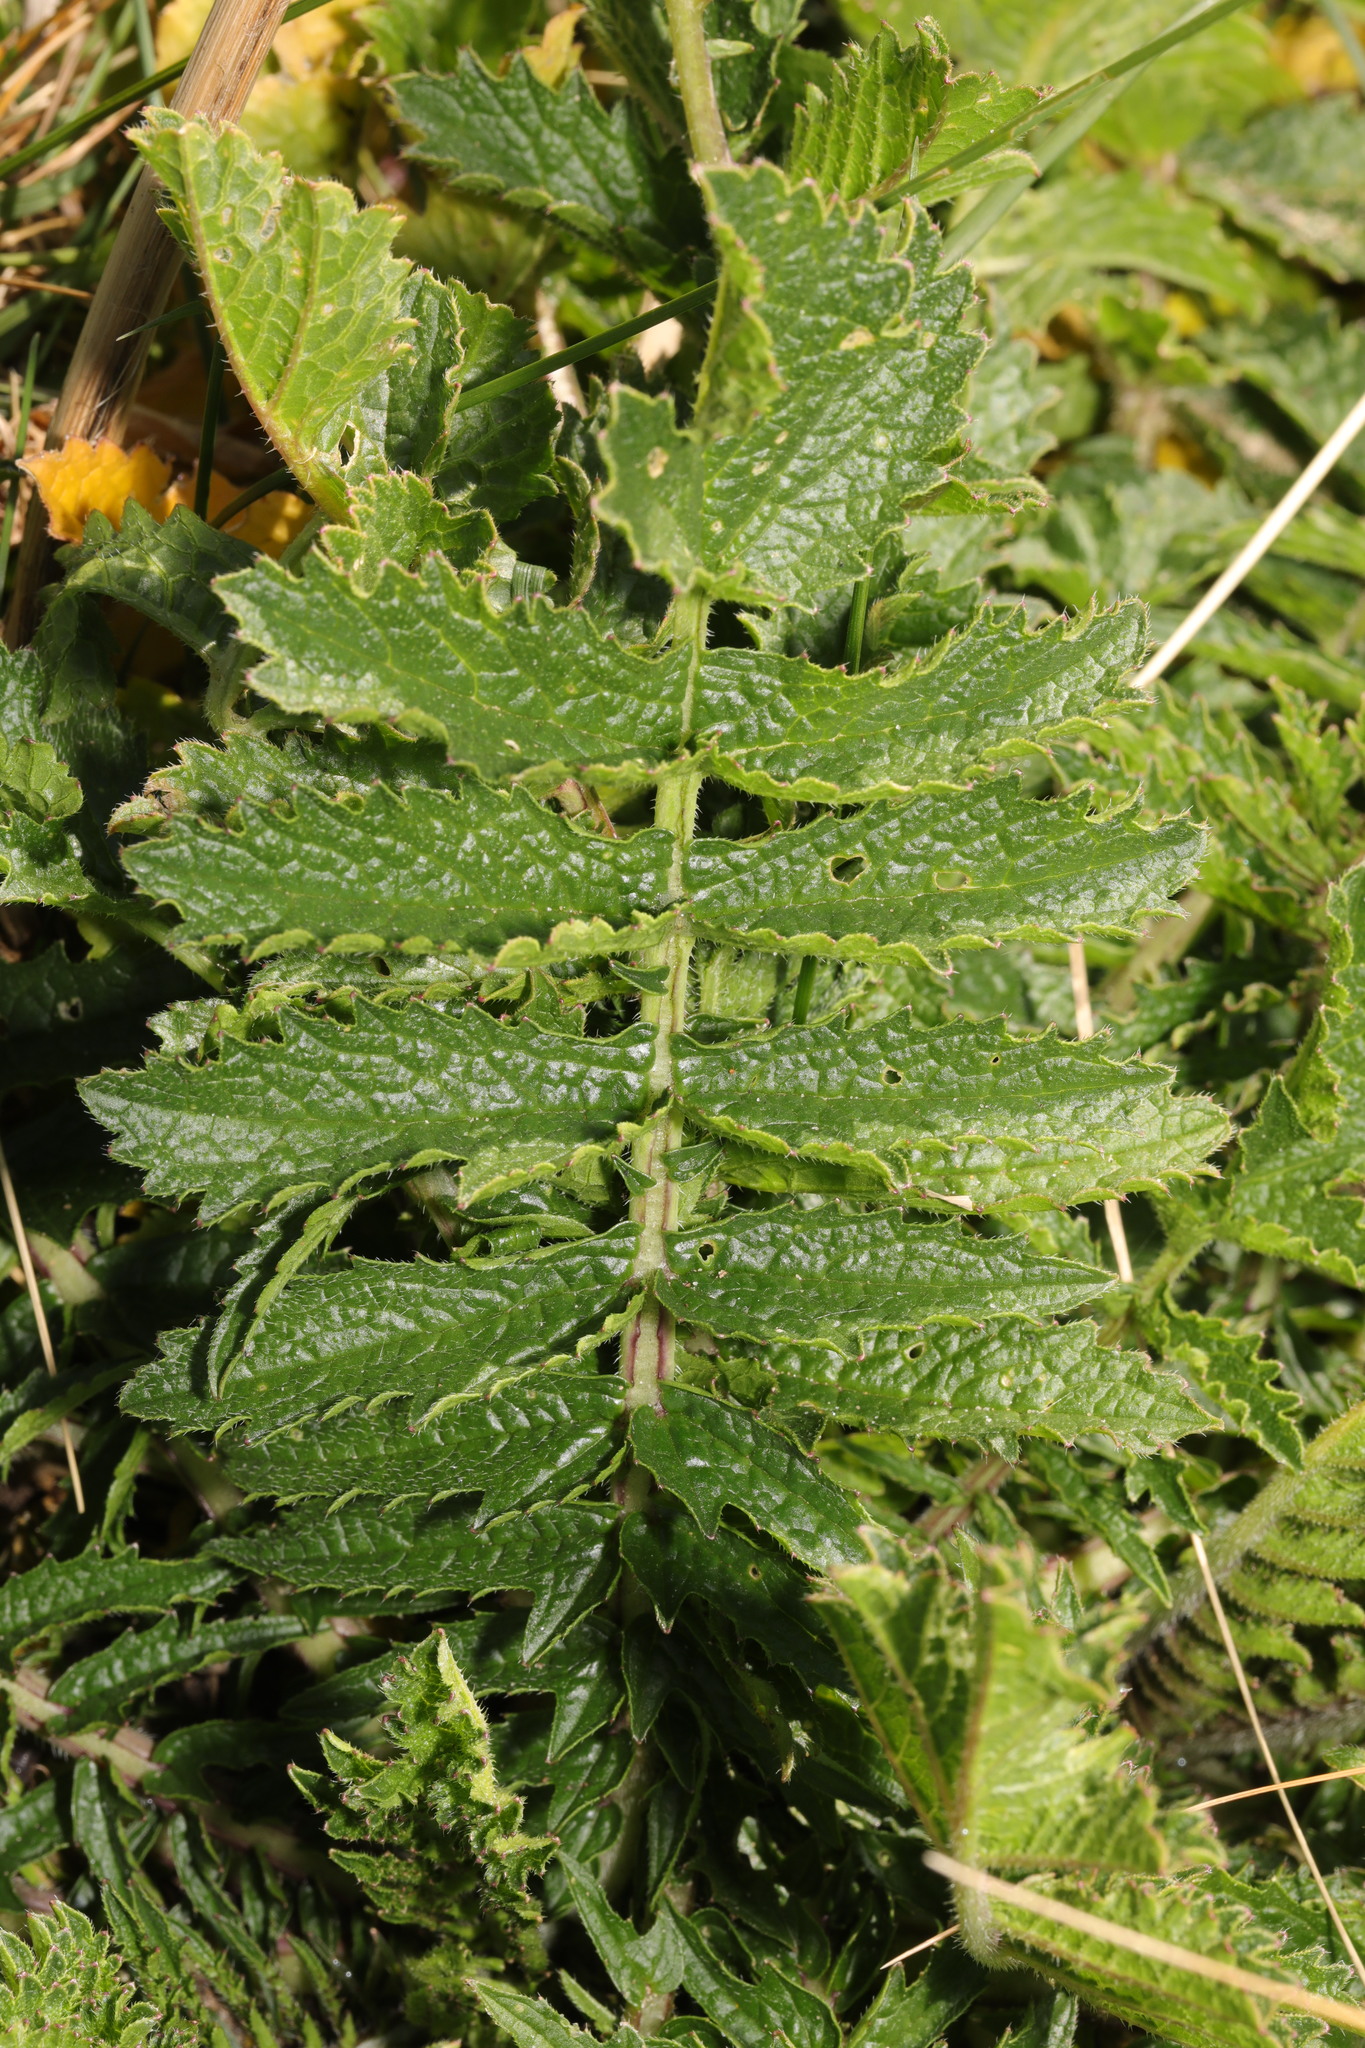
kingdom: Plantae
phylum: Tracheophyta
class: Magnoliopsida
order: Brassicales
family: Brassicaceae
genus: Raphanus
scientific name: Raphanus raphanistrum
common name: Wild radish
